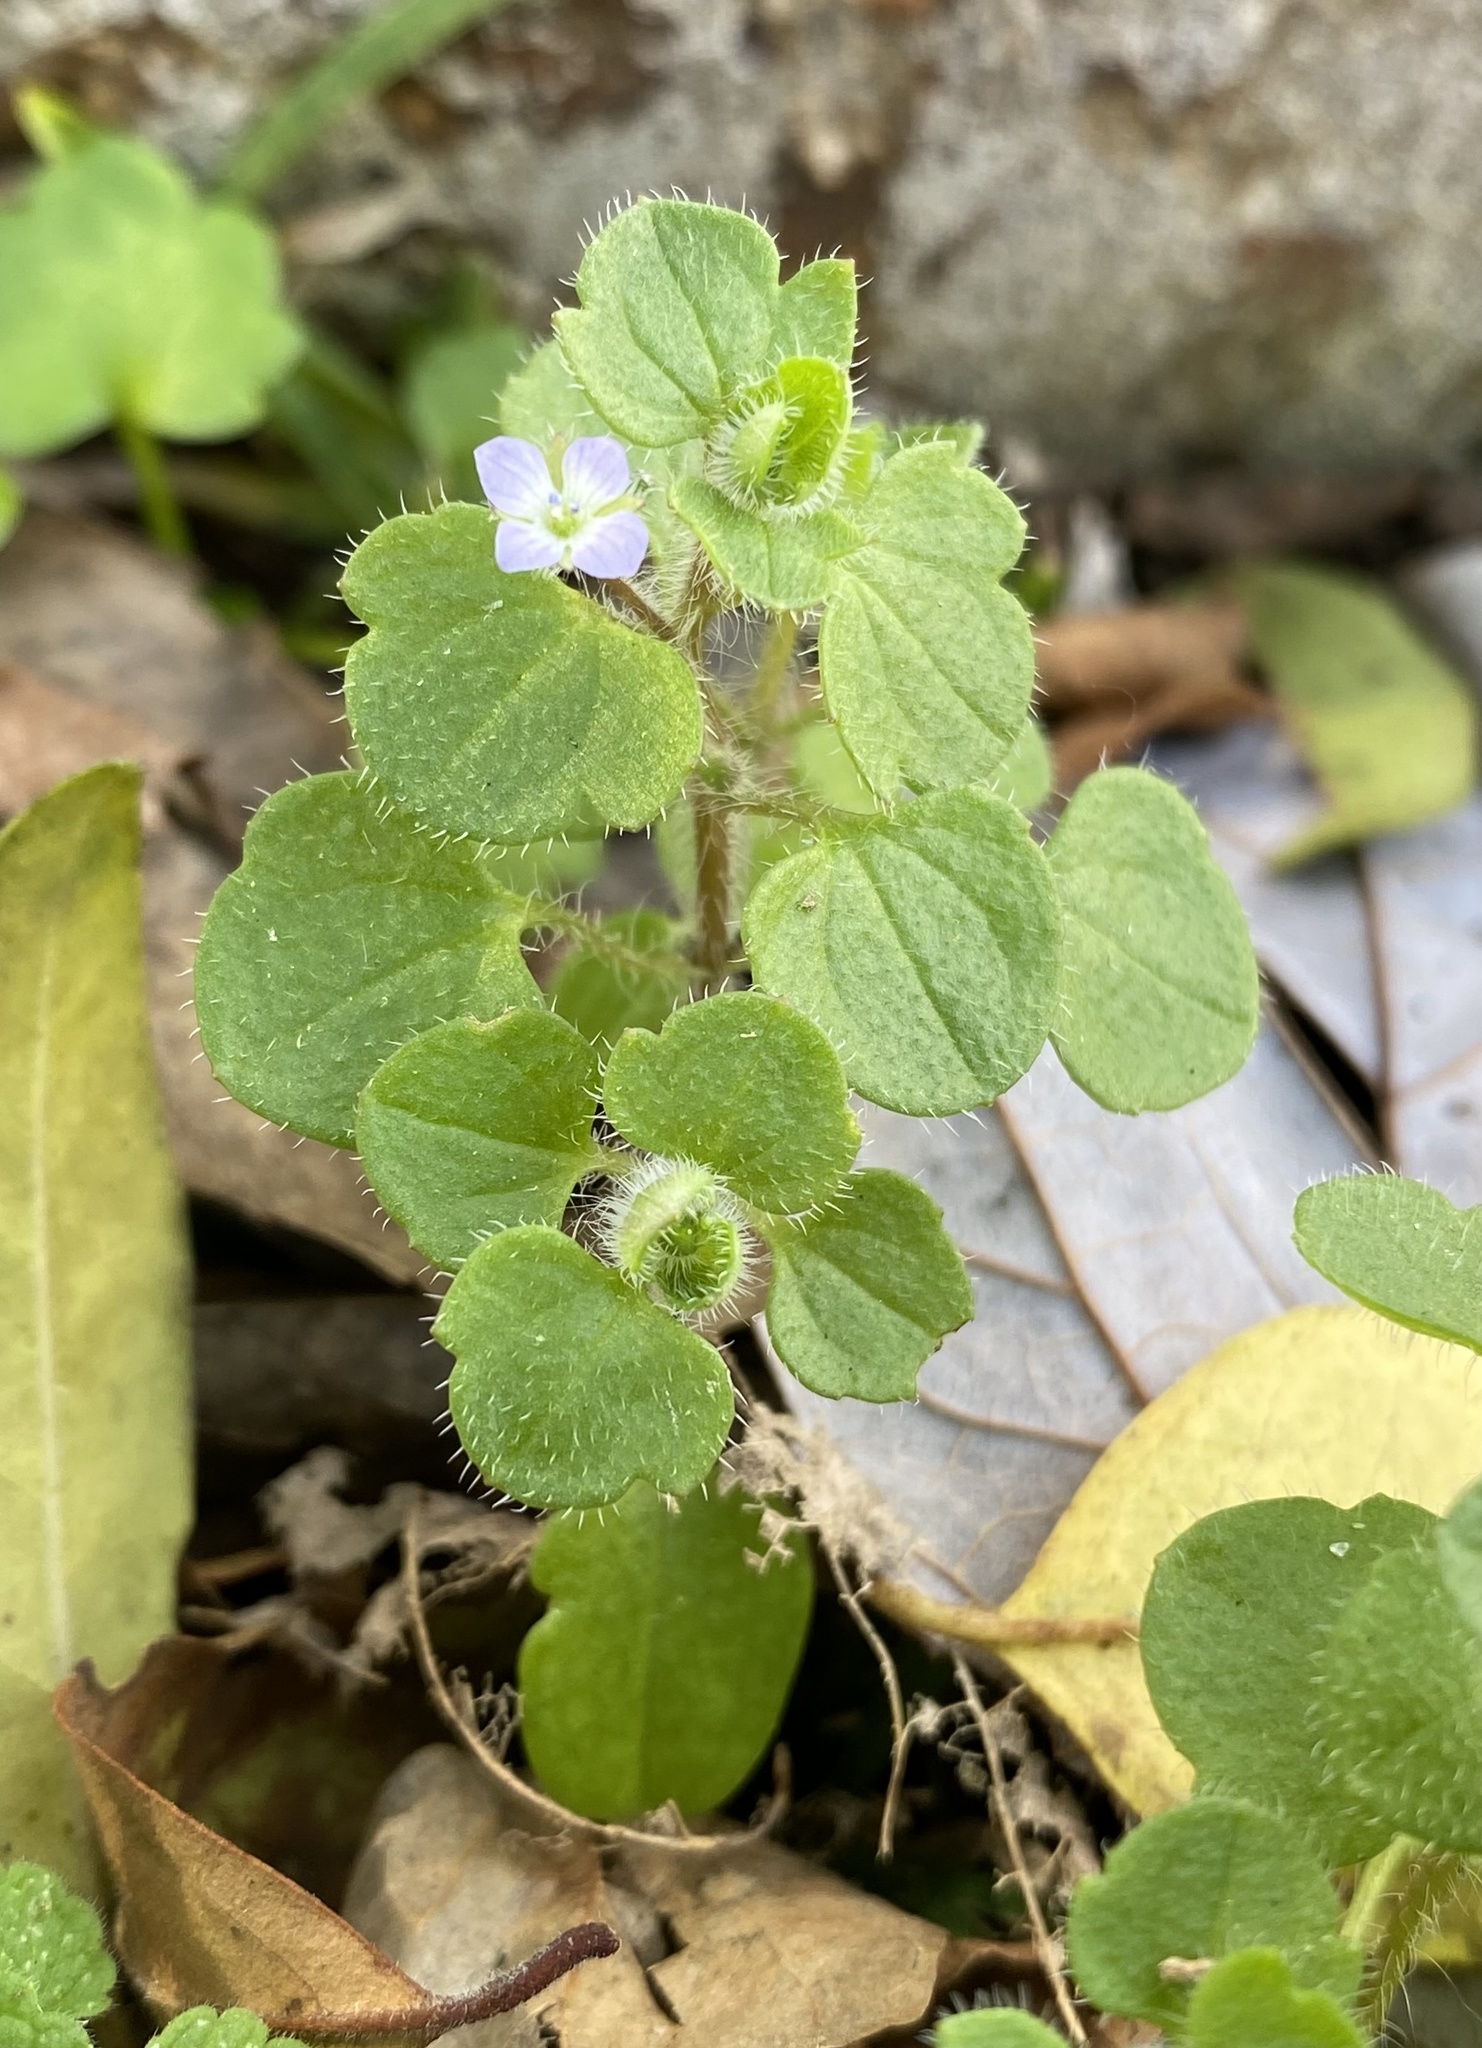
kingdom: Plantae
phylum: Tracheophyta
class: Magnoliopsida
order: Lamiales
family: Plantaginaceae
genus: Veronica
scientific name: Veronica hederifolia
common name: Ivy-leaved speedwell
